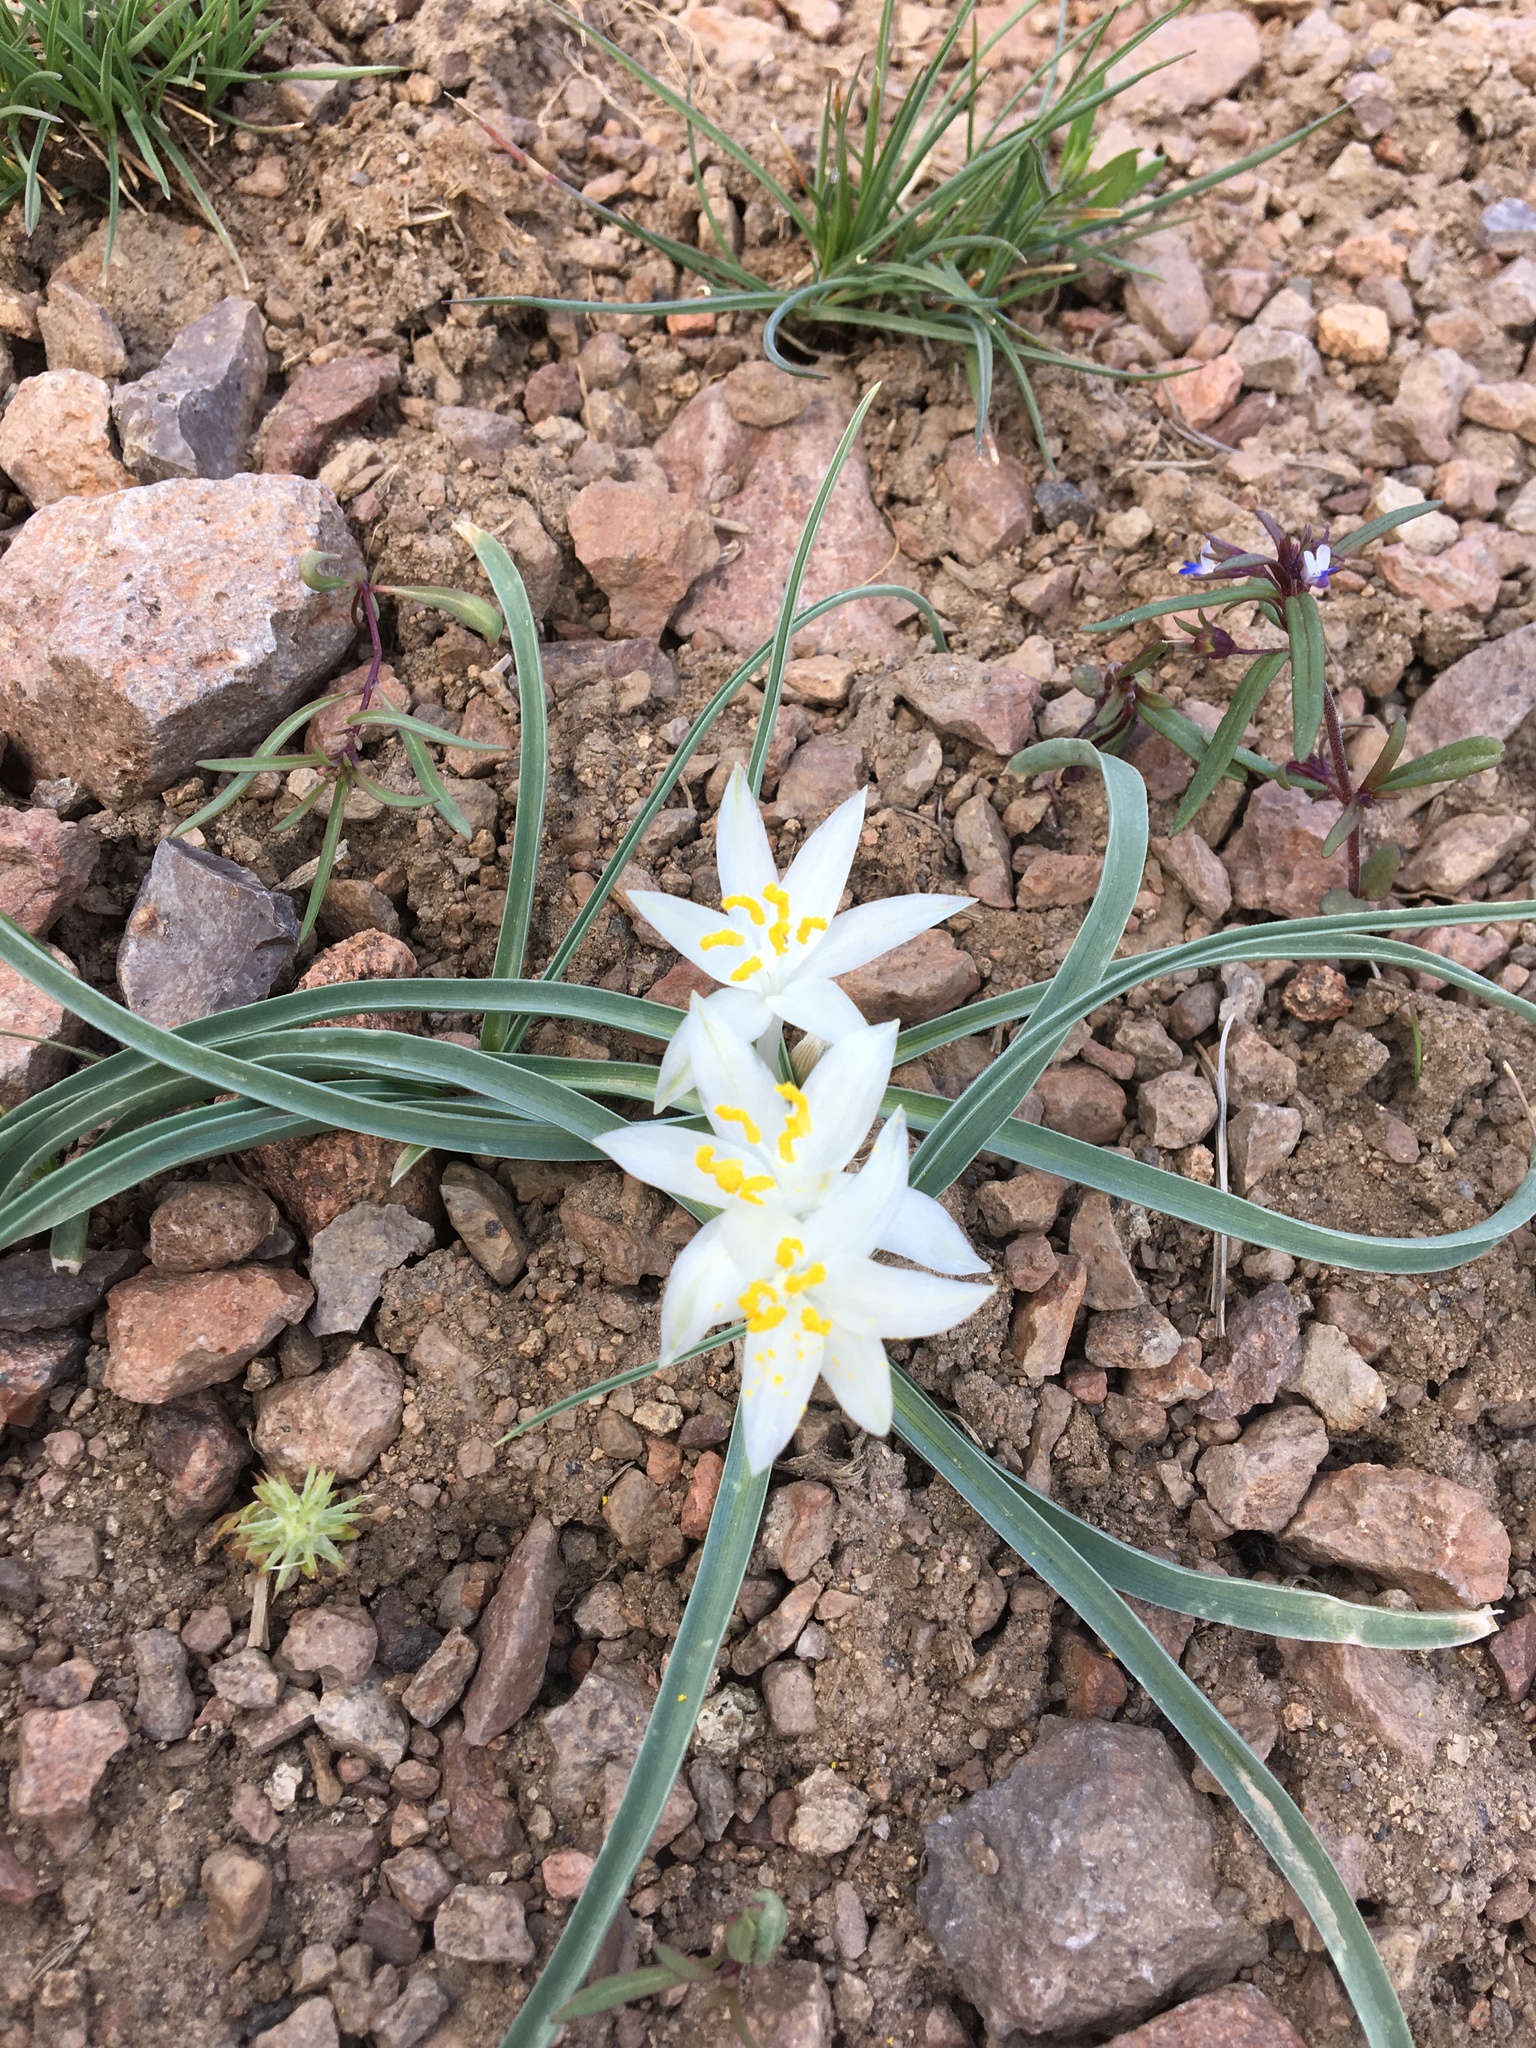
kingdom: Plantae
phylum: Tracheophyta
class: Liliopsida
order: Asparagales
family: Asparagaceae
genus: Leucocrinum
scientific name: Leucocrinum montanum
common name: Mountain-lily
